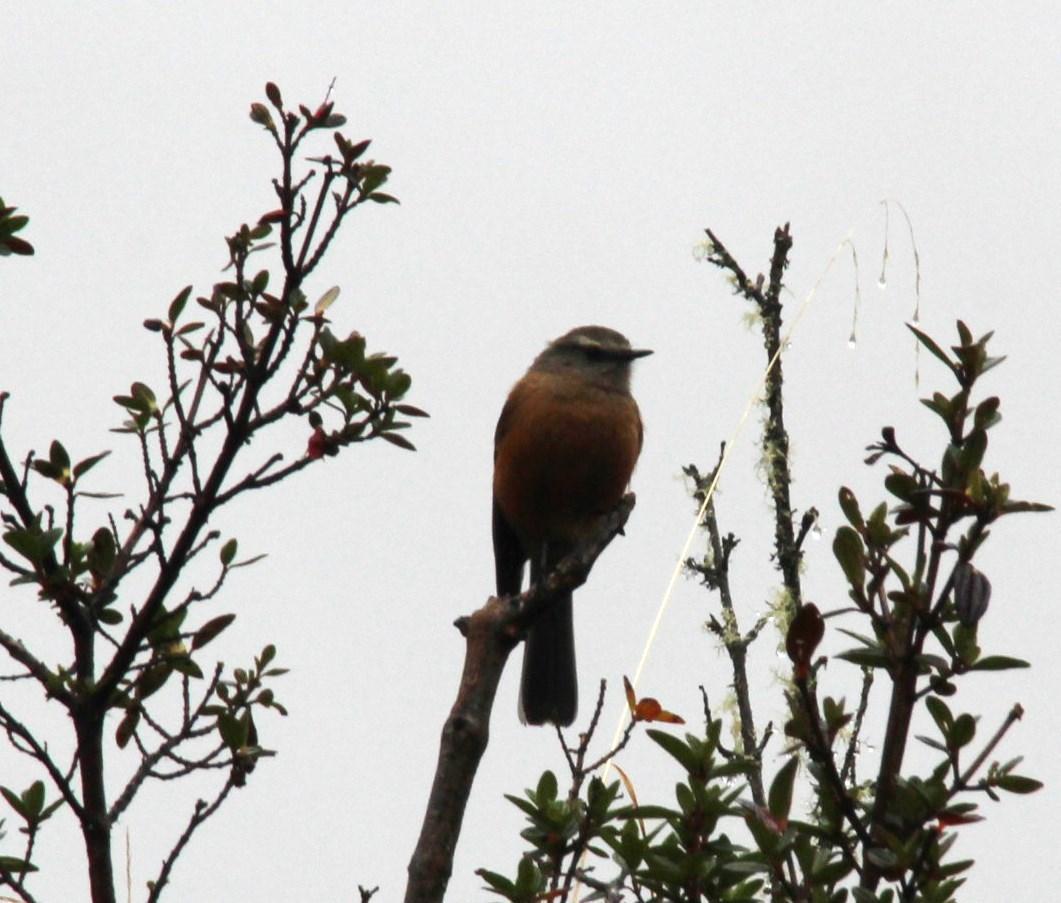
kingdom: Animalia
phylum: Chordata
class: Aves
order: Passeriformes
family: Tyrannidae
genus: Ochthoeca
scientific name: Ochthoeca fumicolor
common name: Brown-backed chat-tyrant
